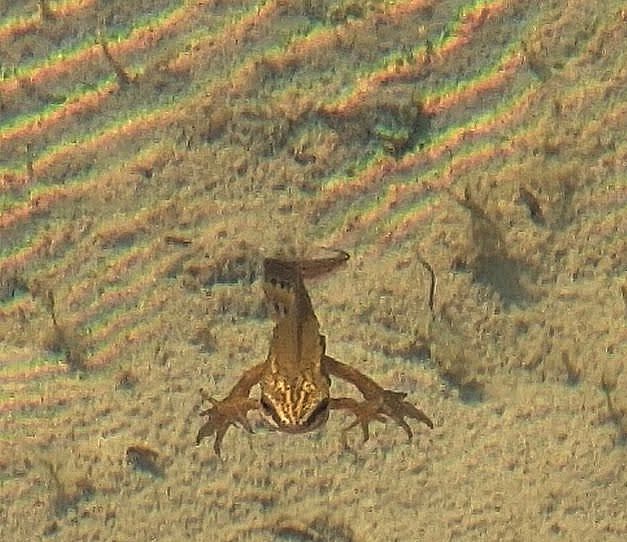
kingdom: Animalia
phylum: Chordata
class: Amphibia
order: Caudata
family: Salamandridae
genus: Lissotriton
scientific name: Lissotriton helveticus
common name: Palmate newt
